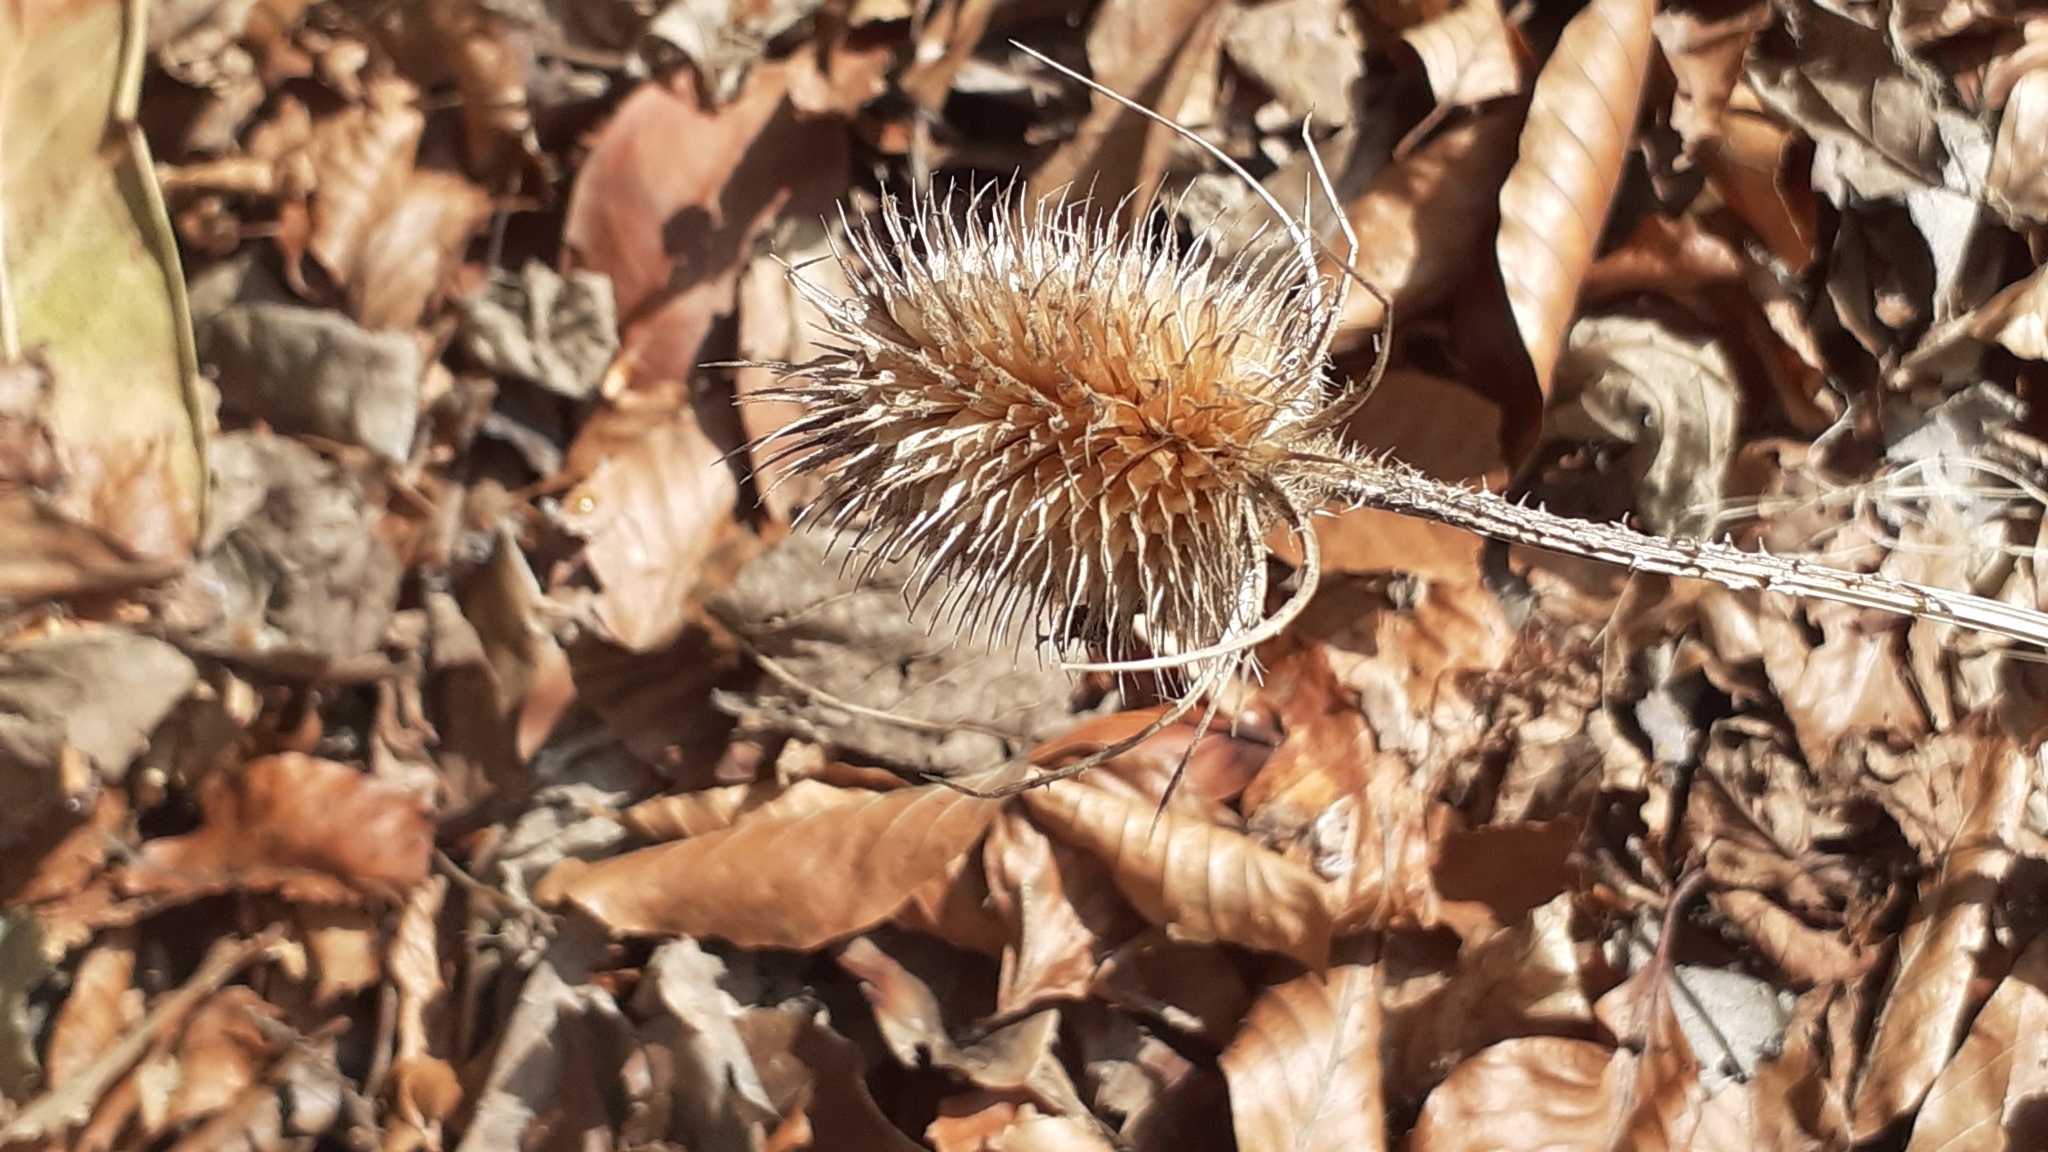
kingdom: Plantae
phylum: Tracheophyta
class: Magnoliopsida
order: Dipsacales
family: Caprifoliaceae
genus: Dipsacus
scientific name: Dipsacus fullonum
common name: Teasel
